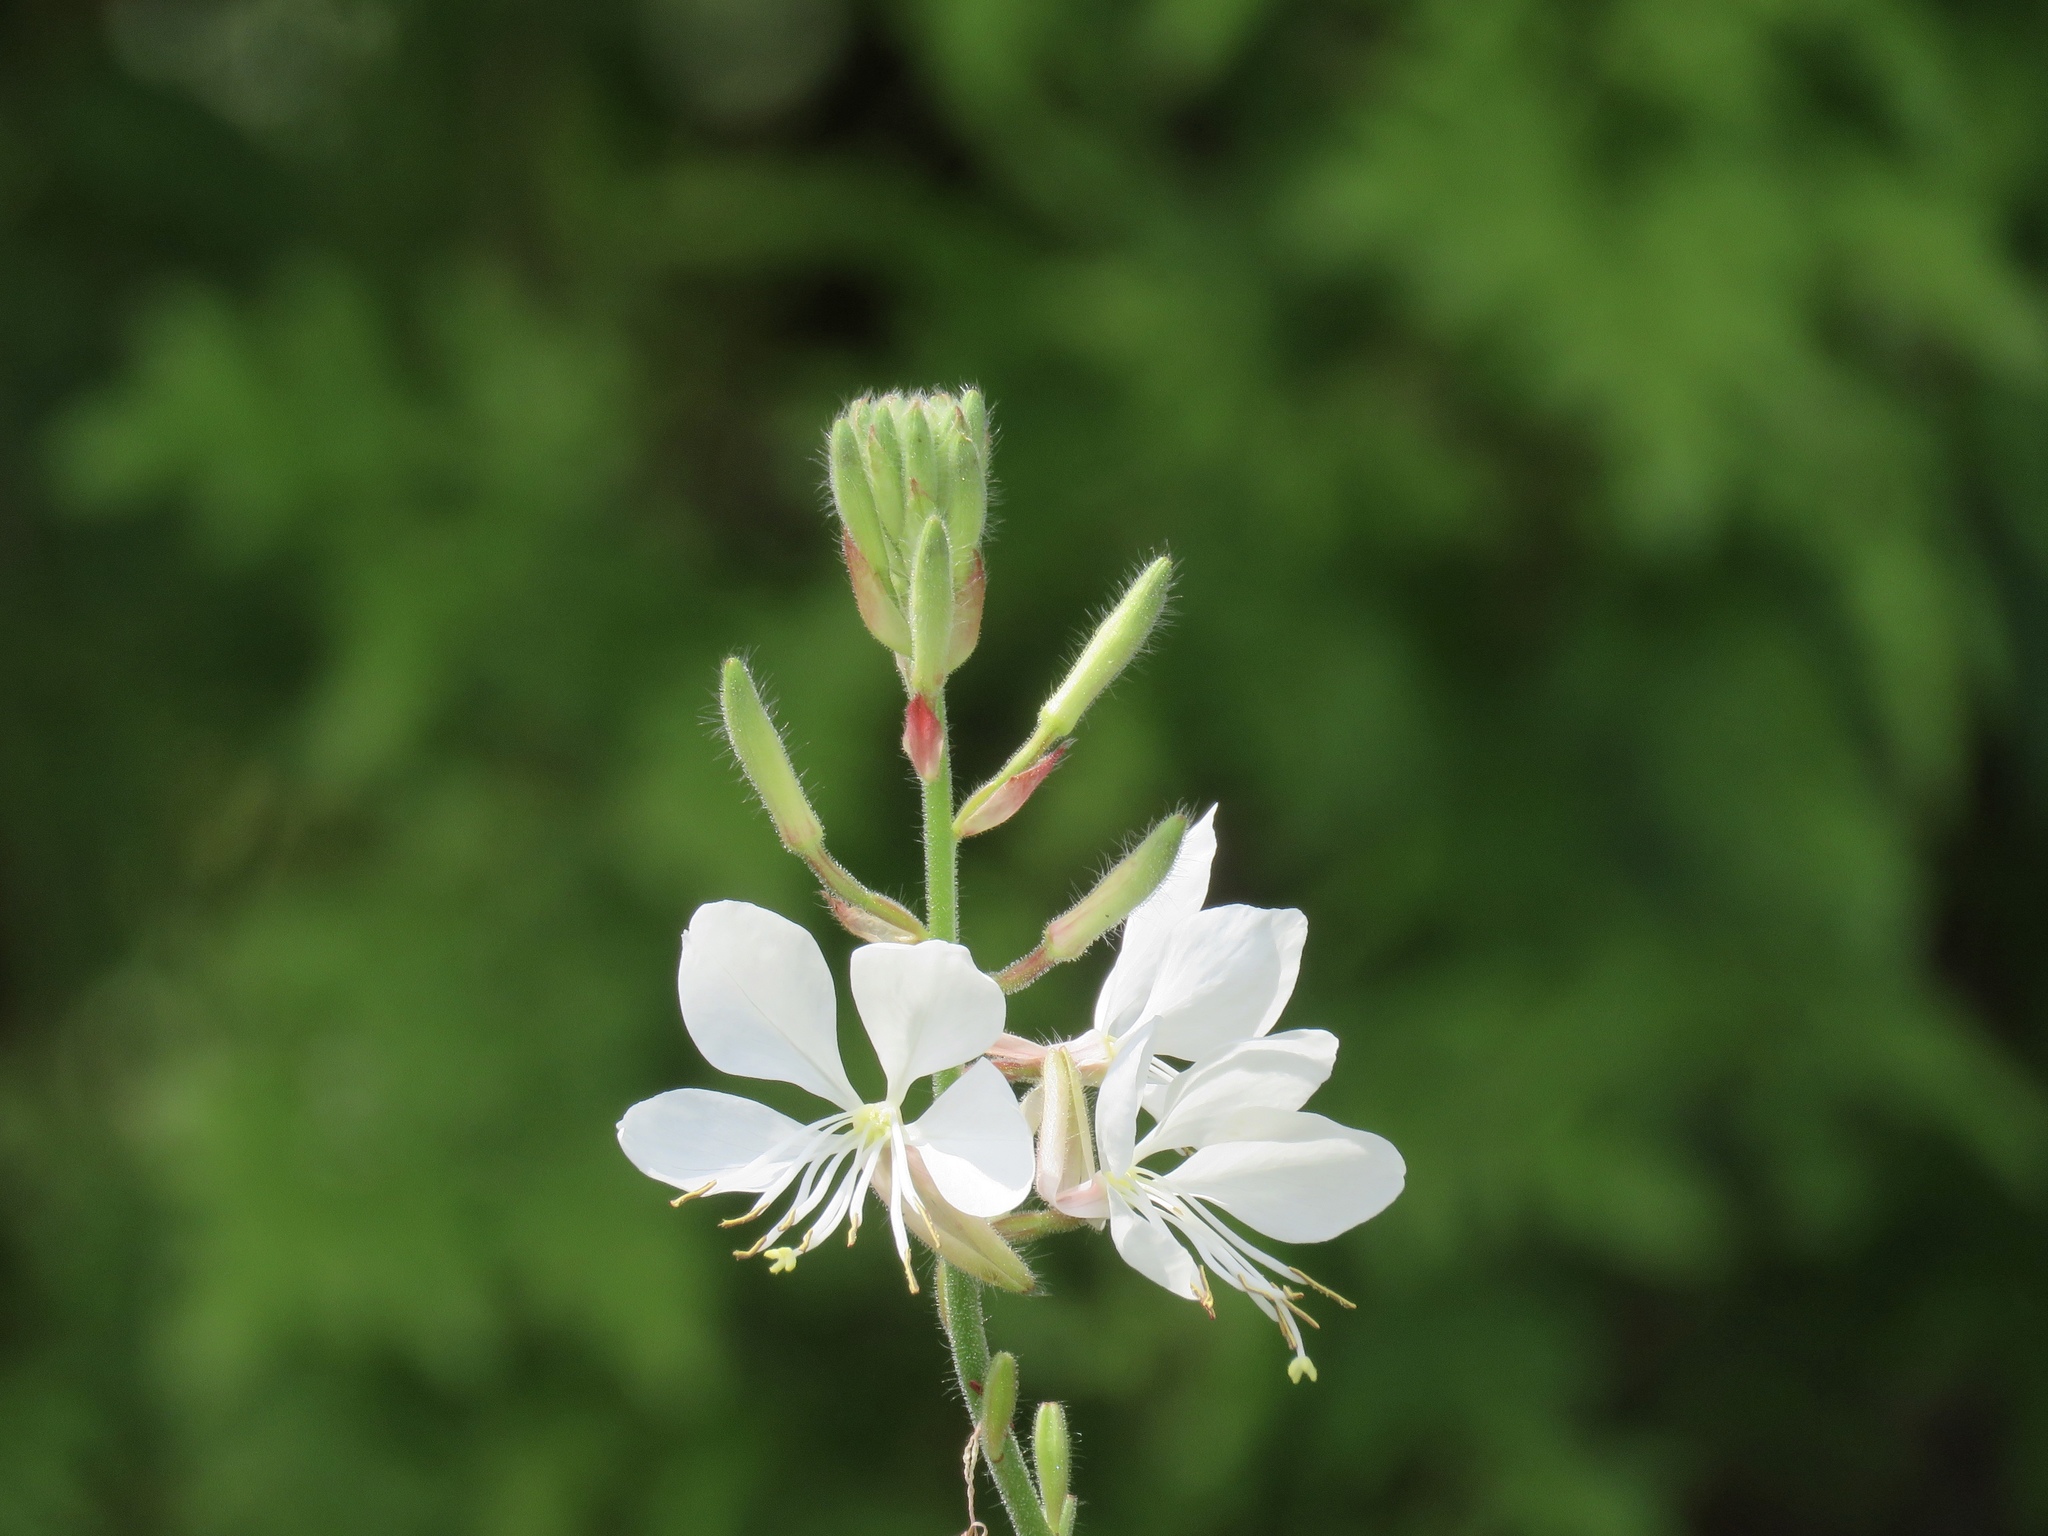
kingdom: Plantae
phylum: Tracheophyta
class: Magnoliopsida
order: Myrtales
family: Onagraceae
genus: Oenothera
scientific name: Oenothera lindheimeri
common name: Lindheimer's beeblossom
